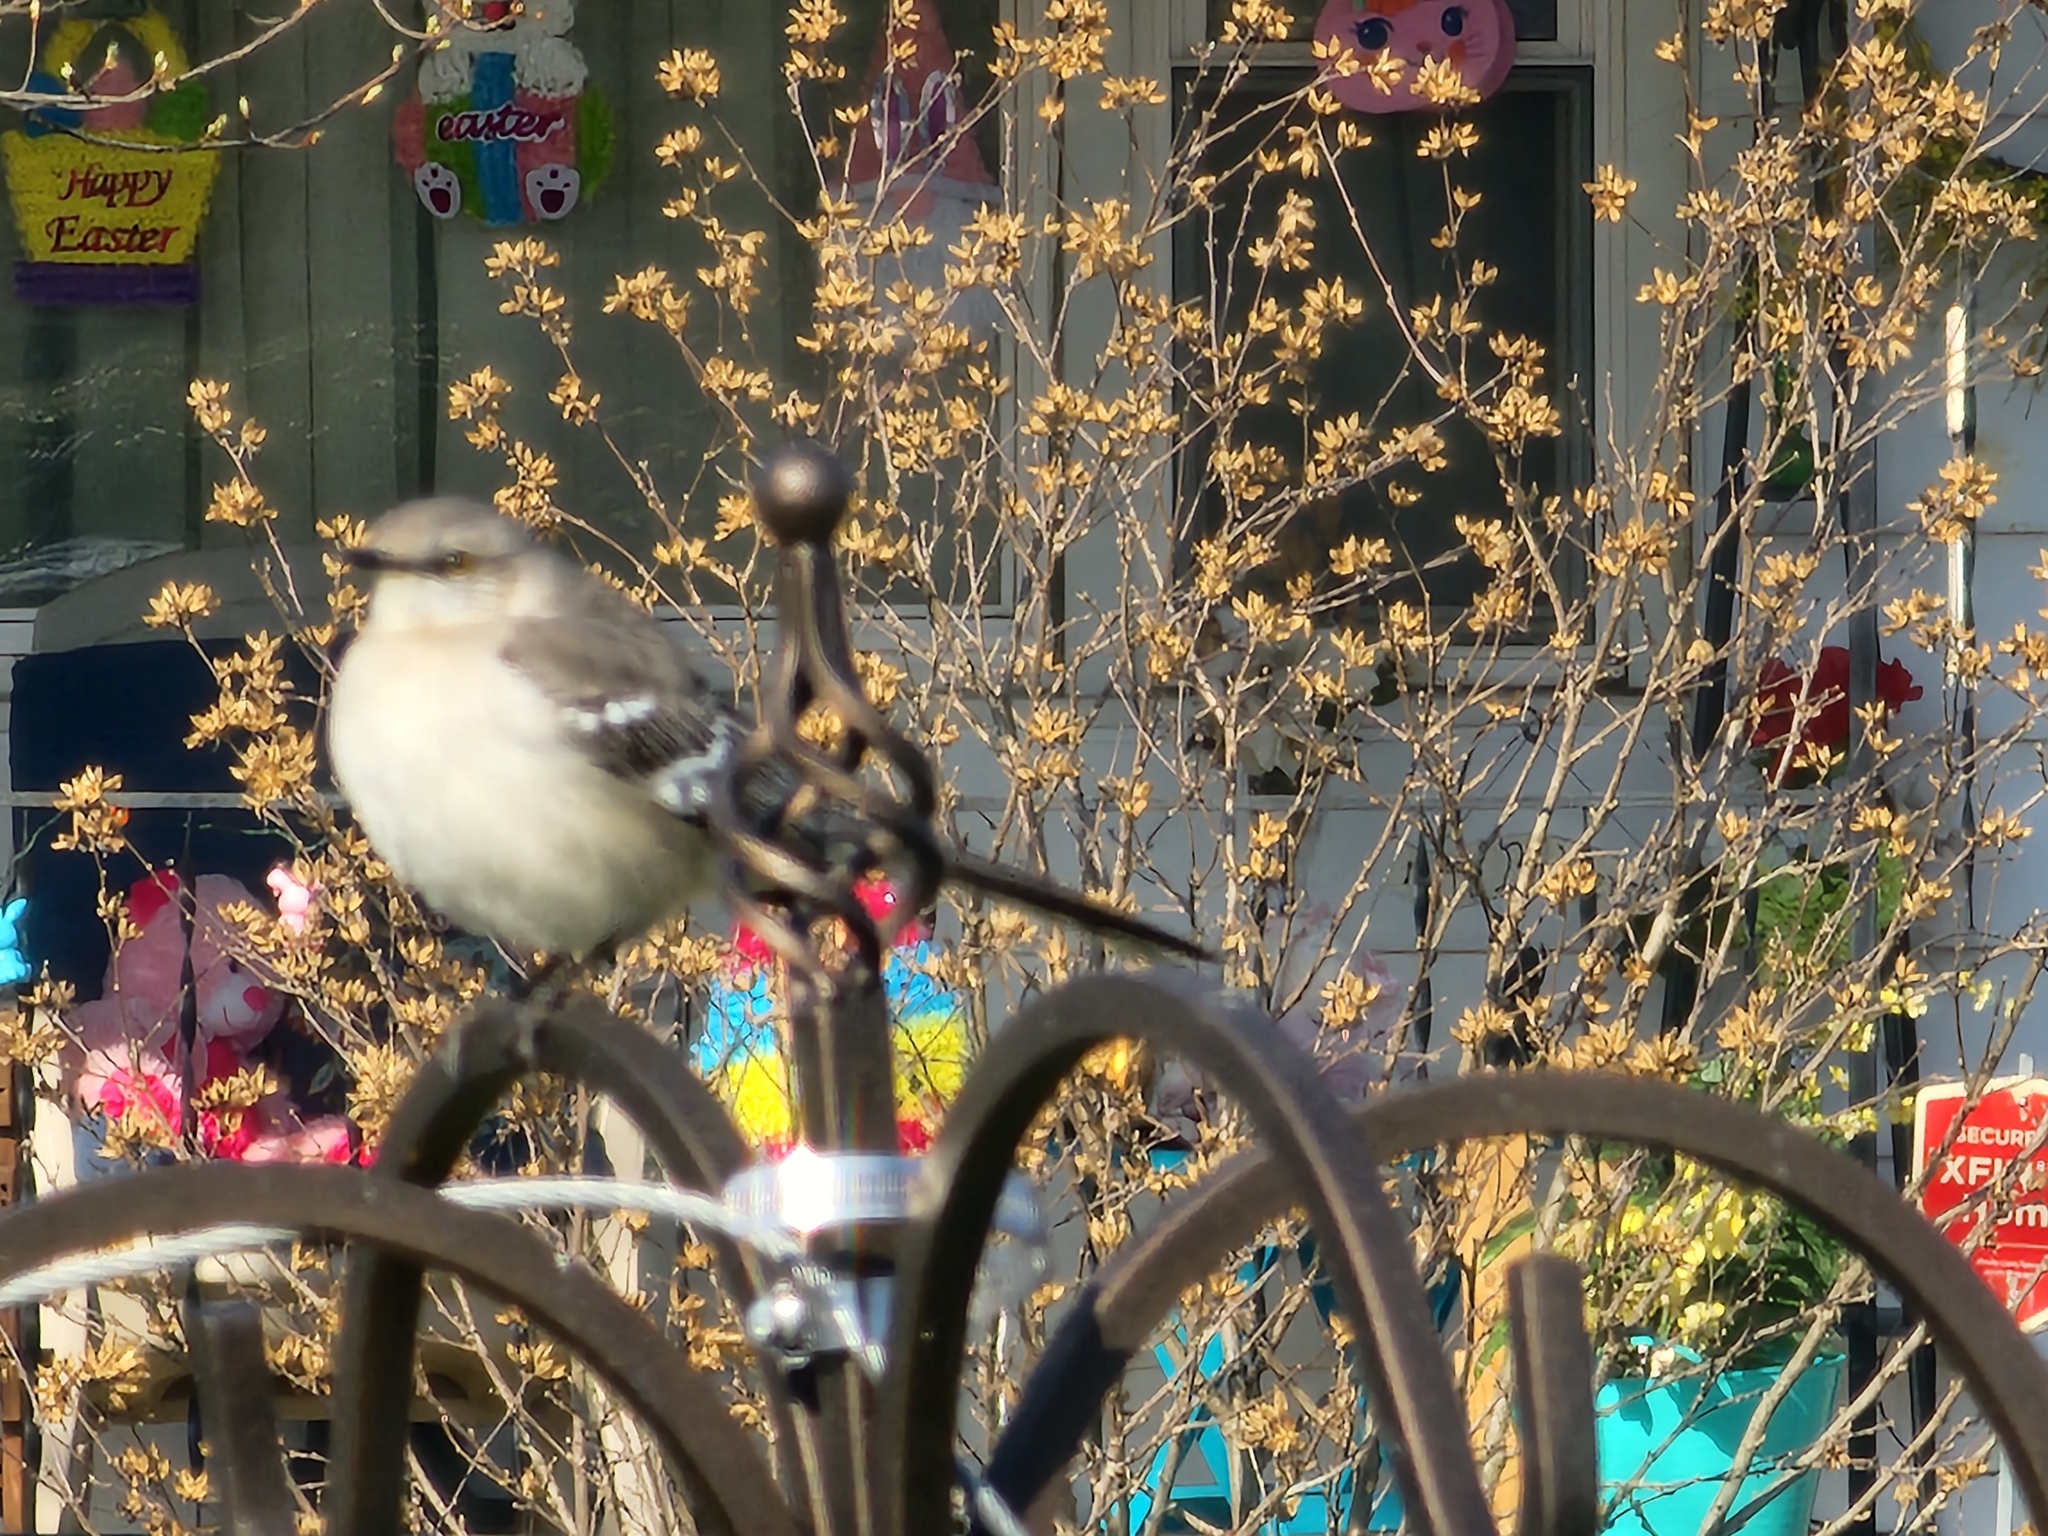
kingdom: Animalia
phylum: Chordata
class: Aves
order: Passeriformes
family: Mimidae
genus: Mimus
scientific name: Mimus polyglottos
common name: Northern mockingbird
